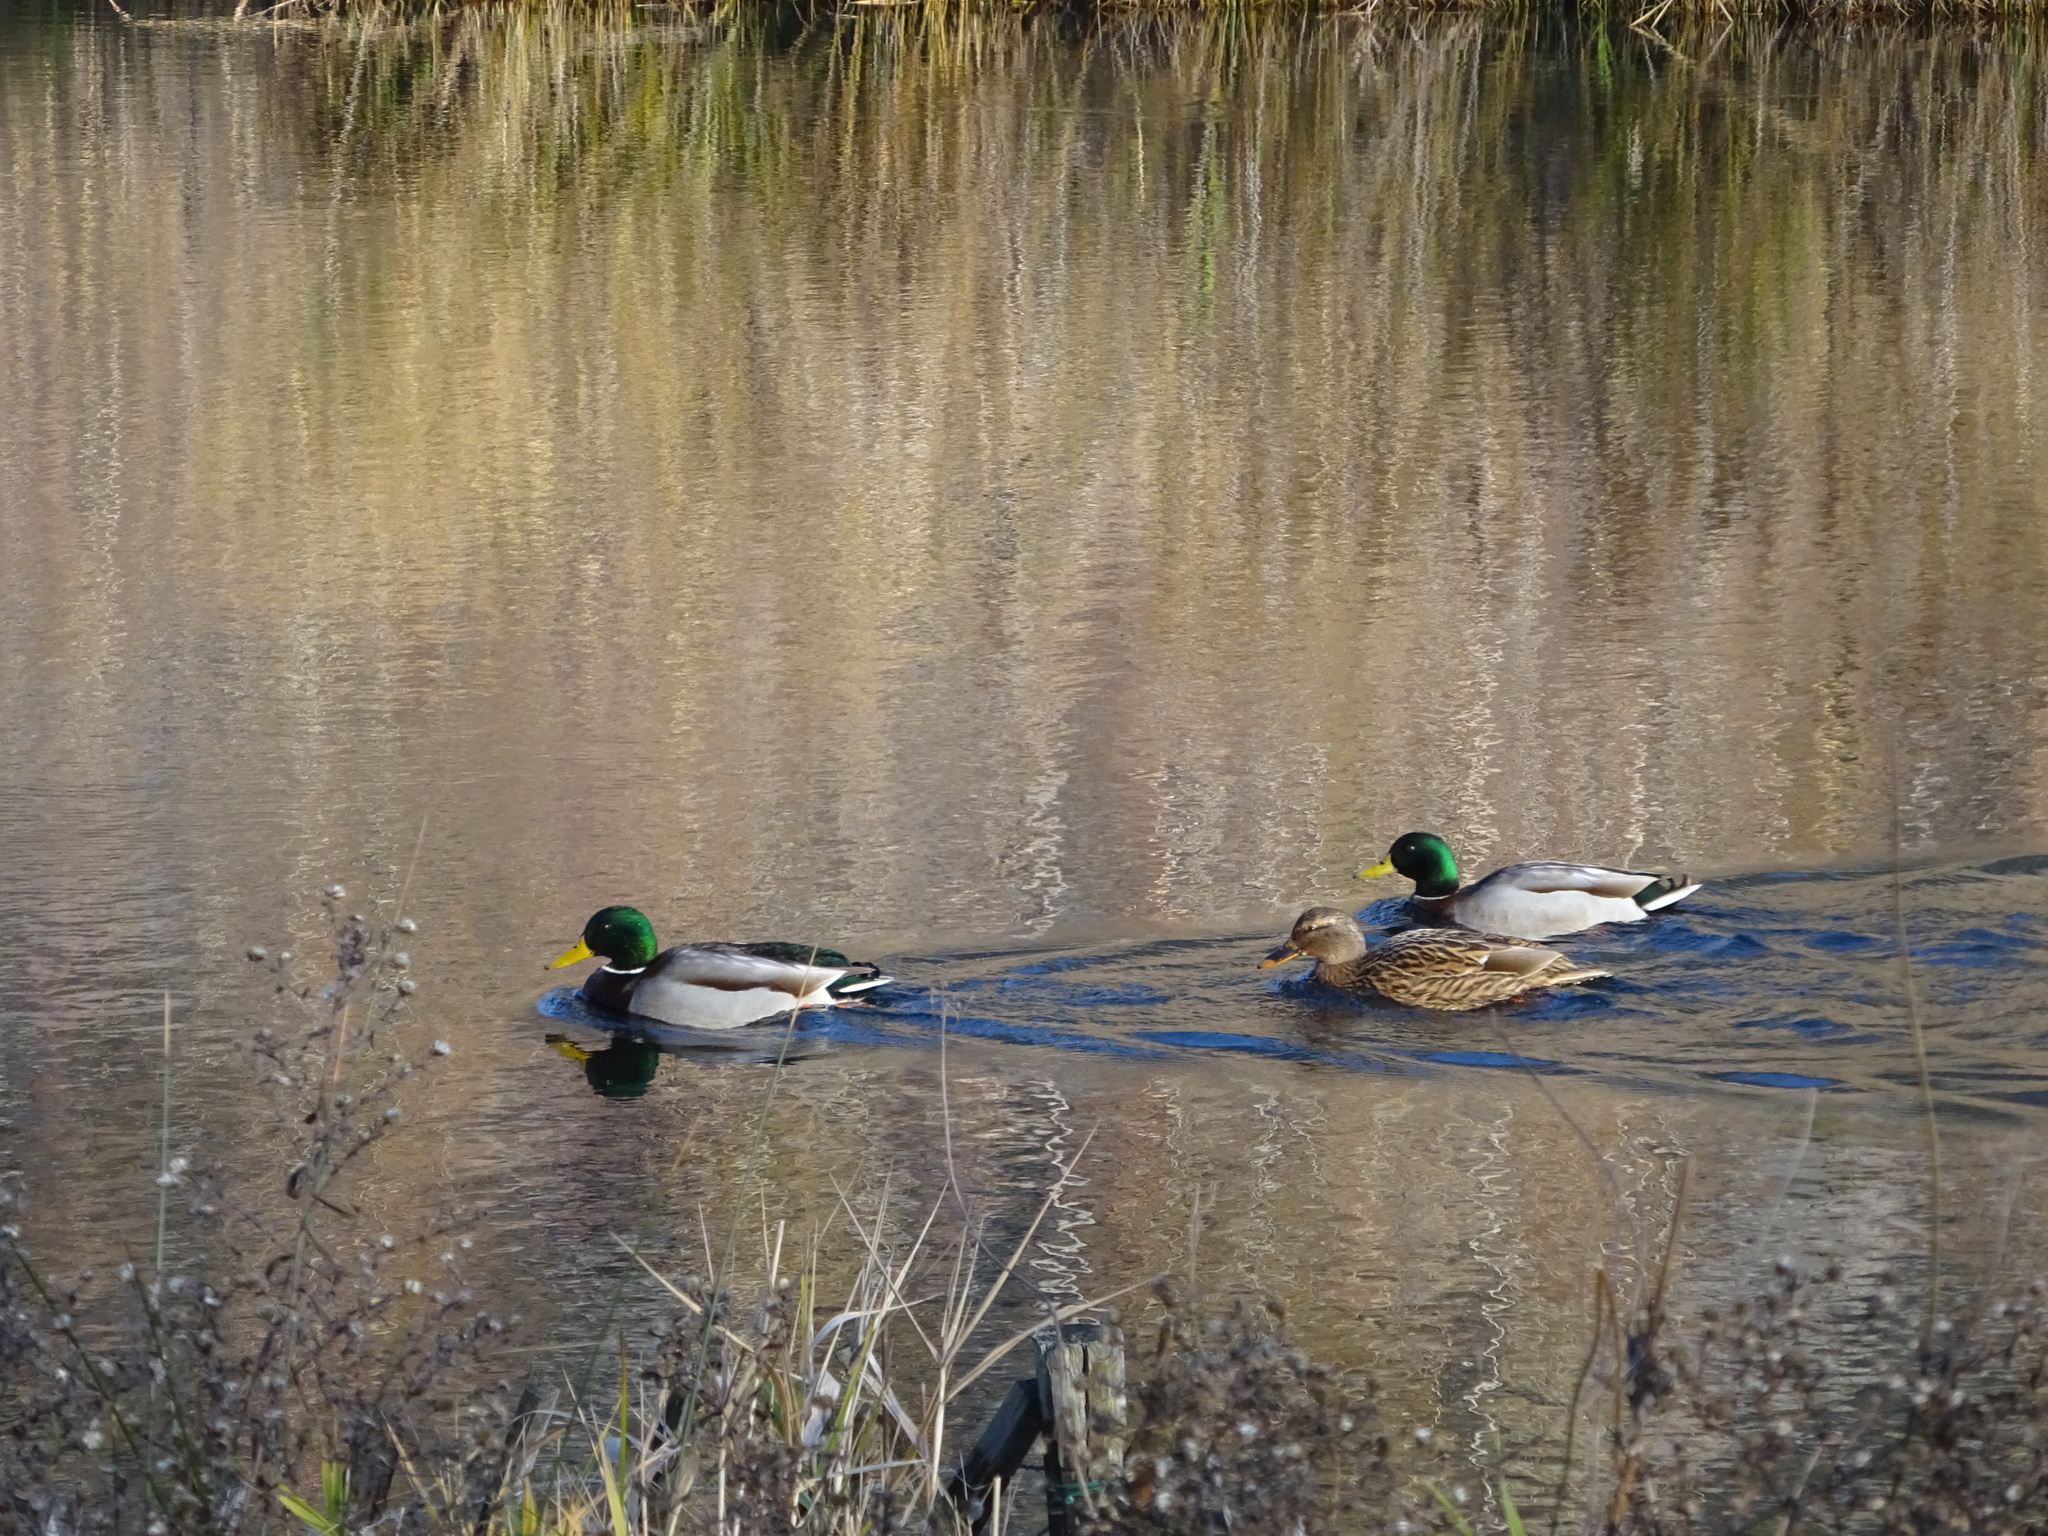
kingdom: Animalia
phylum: Chordata
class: Aves
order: Anseriformes
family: Anatidae
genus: Anas
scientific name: Anas platyrhynchos
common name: Mallard
